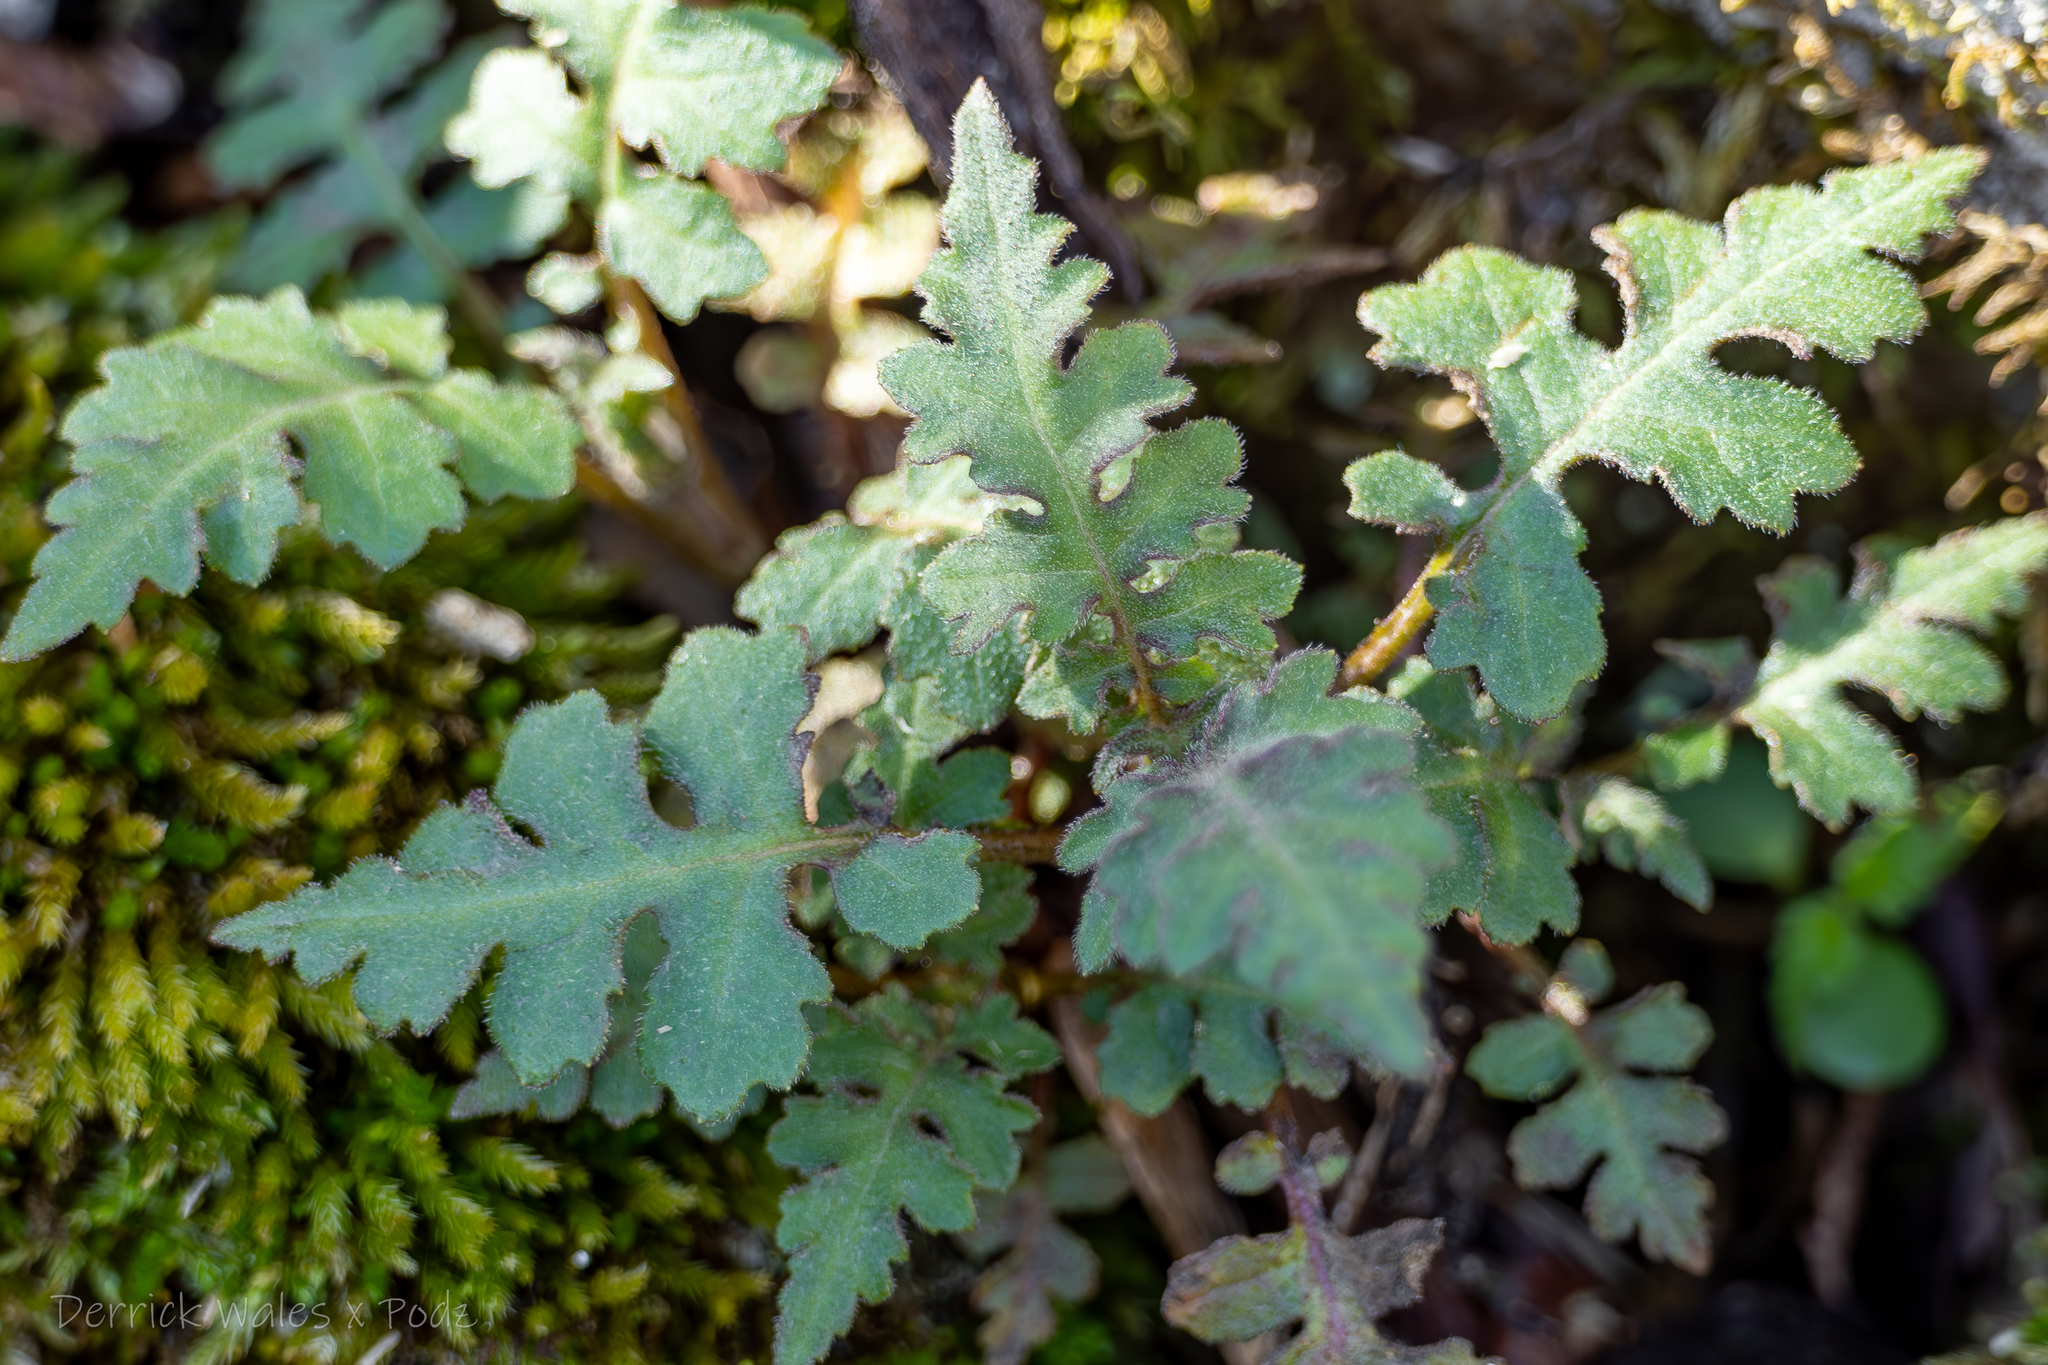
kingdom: Plantae
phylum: Tracheophyta
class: Magnoliopsida
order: Asterales
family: Asteraceae
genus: Polymnia
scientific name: Polymnia canadensis
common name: Pale-flowered leafcup
